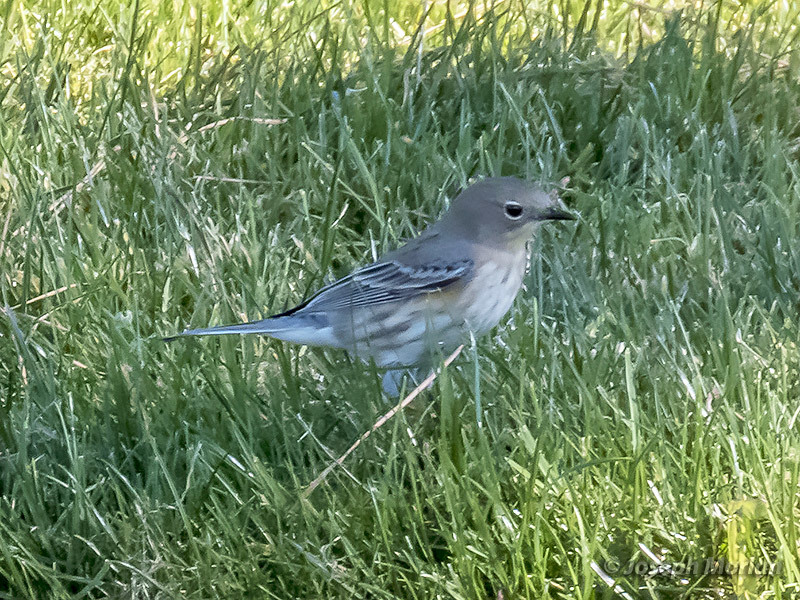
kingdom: Animalia
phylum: Chordata
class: Aves
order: Passeriformes
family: Parulidae
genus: Setophaga
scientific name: Setophaga coronata
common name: Myrtle warbler
